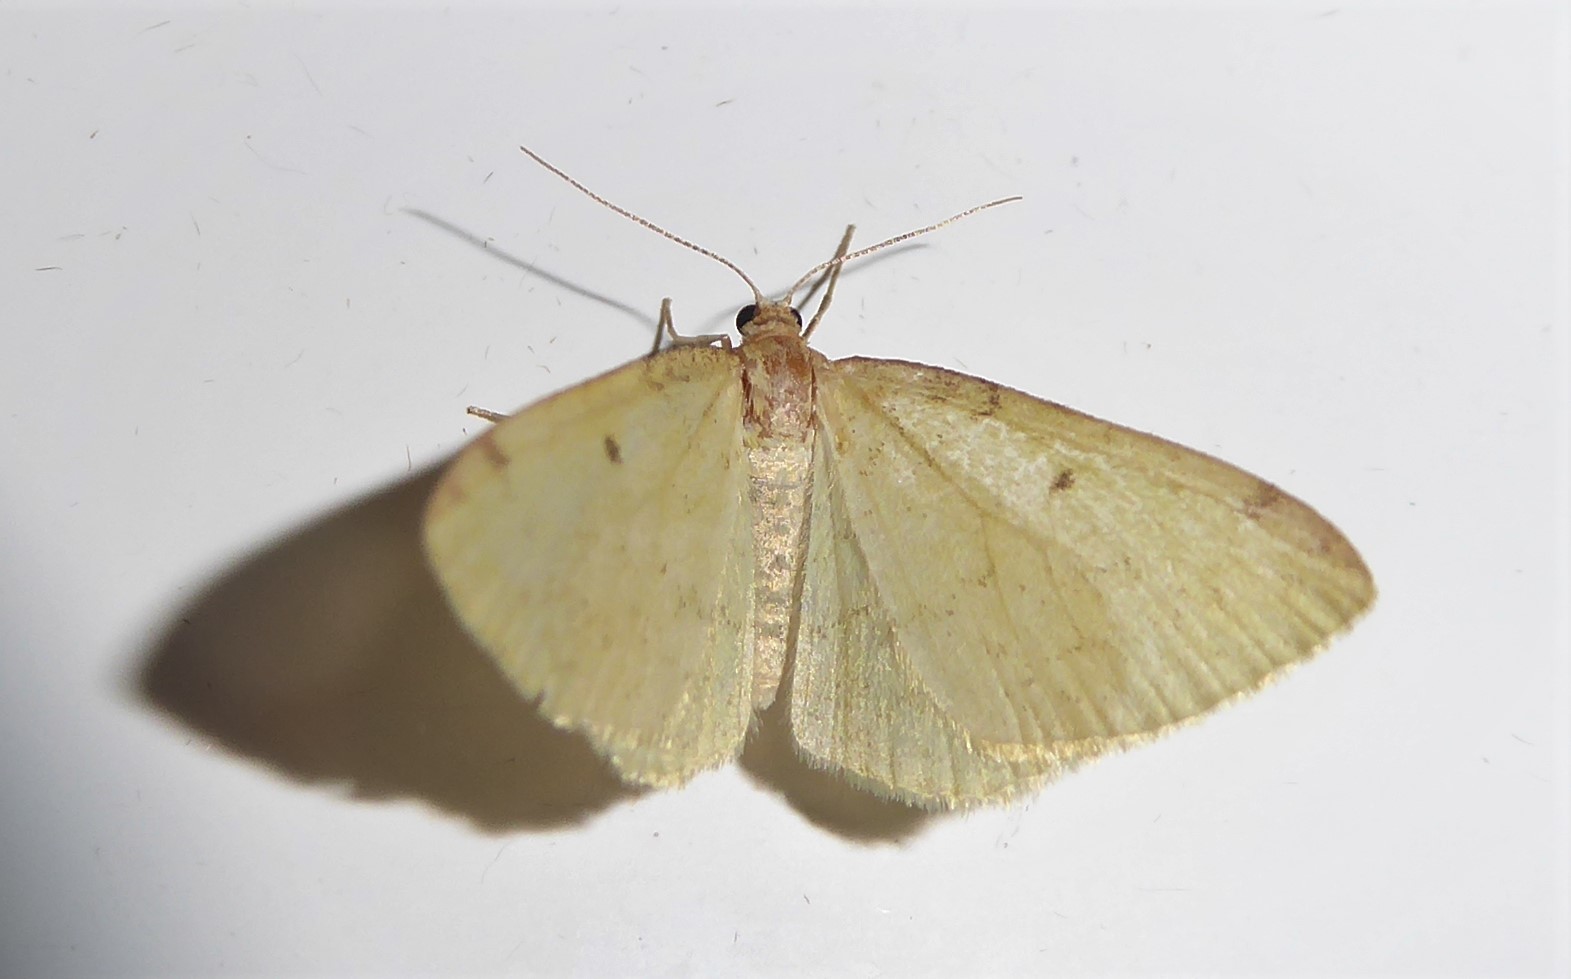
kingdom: Animalia
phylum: Arthropoda
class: Insecta
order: Lepidoptera
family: Geometridae
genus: Epiphryne
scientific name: Epiphryne undosata
